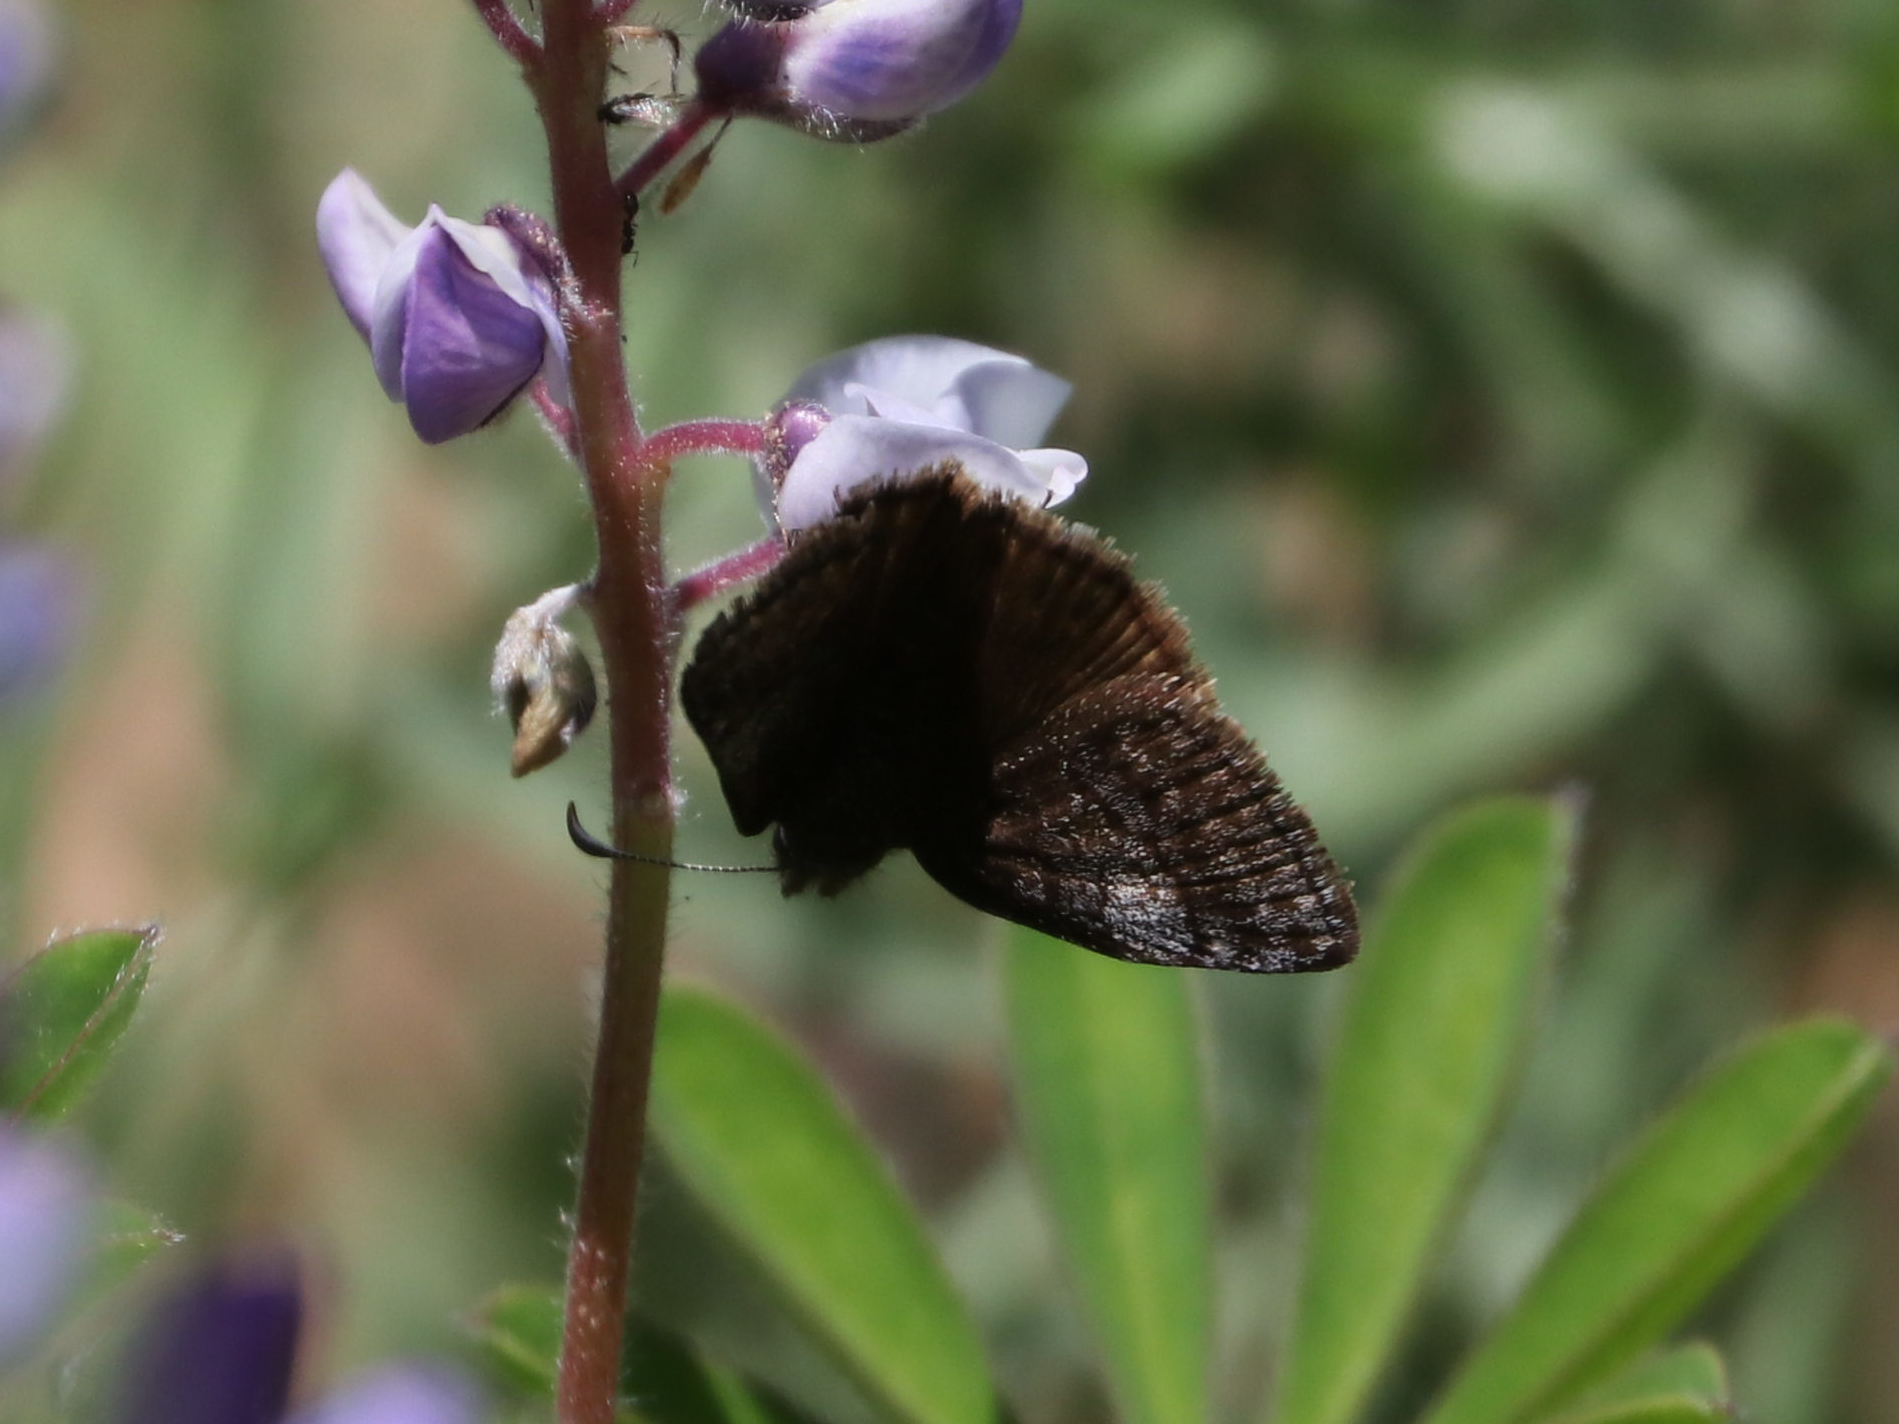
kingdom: Animalia
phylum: Arthropoda
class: Insecta
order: Lepidoptera
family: Hesperiidae
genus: Erynnis
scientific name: Erynnis icelus
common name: Dreamy duskywing
